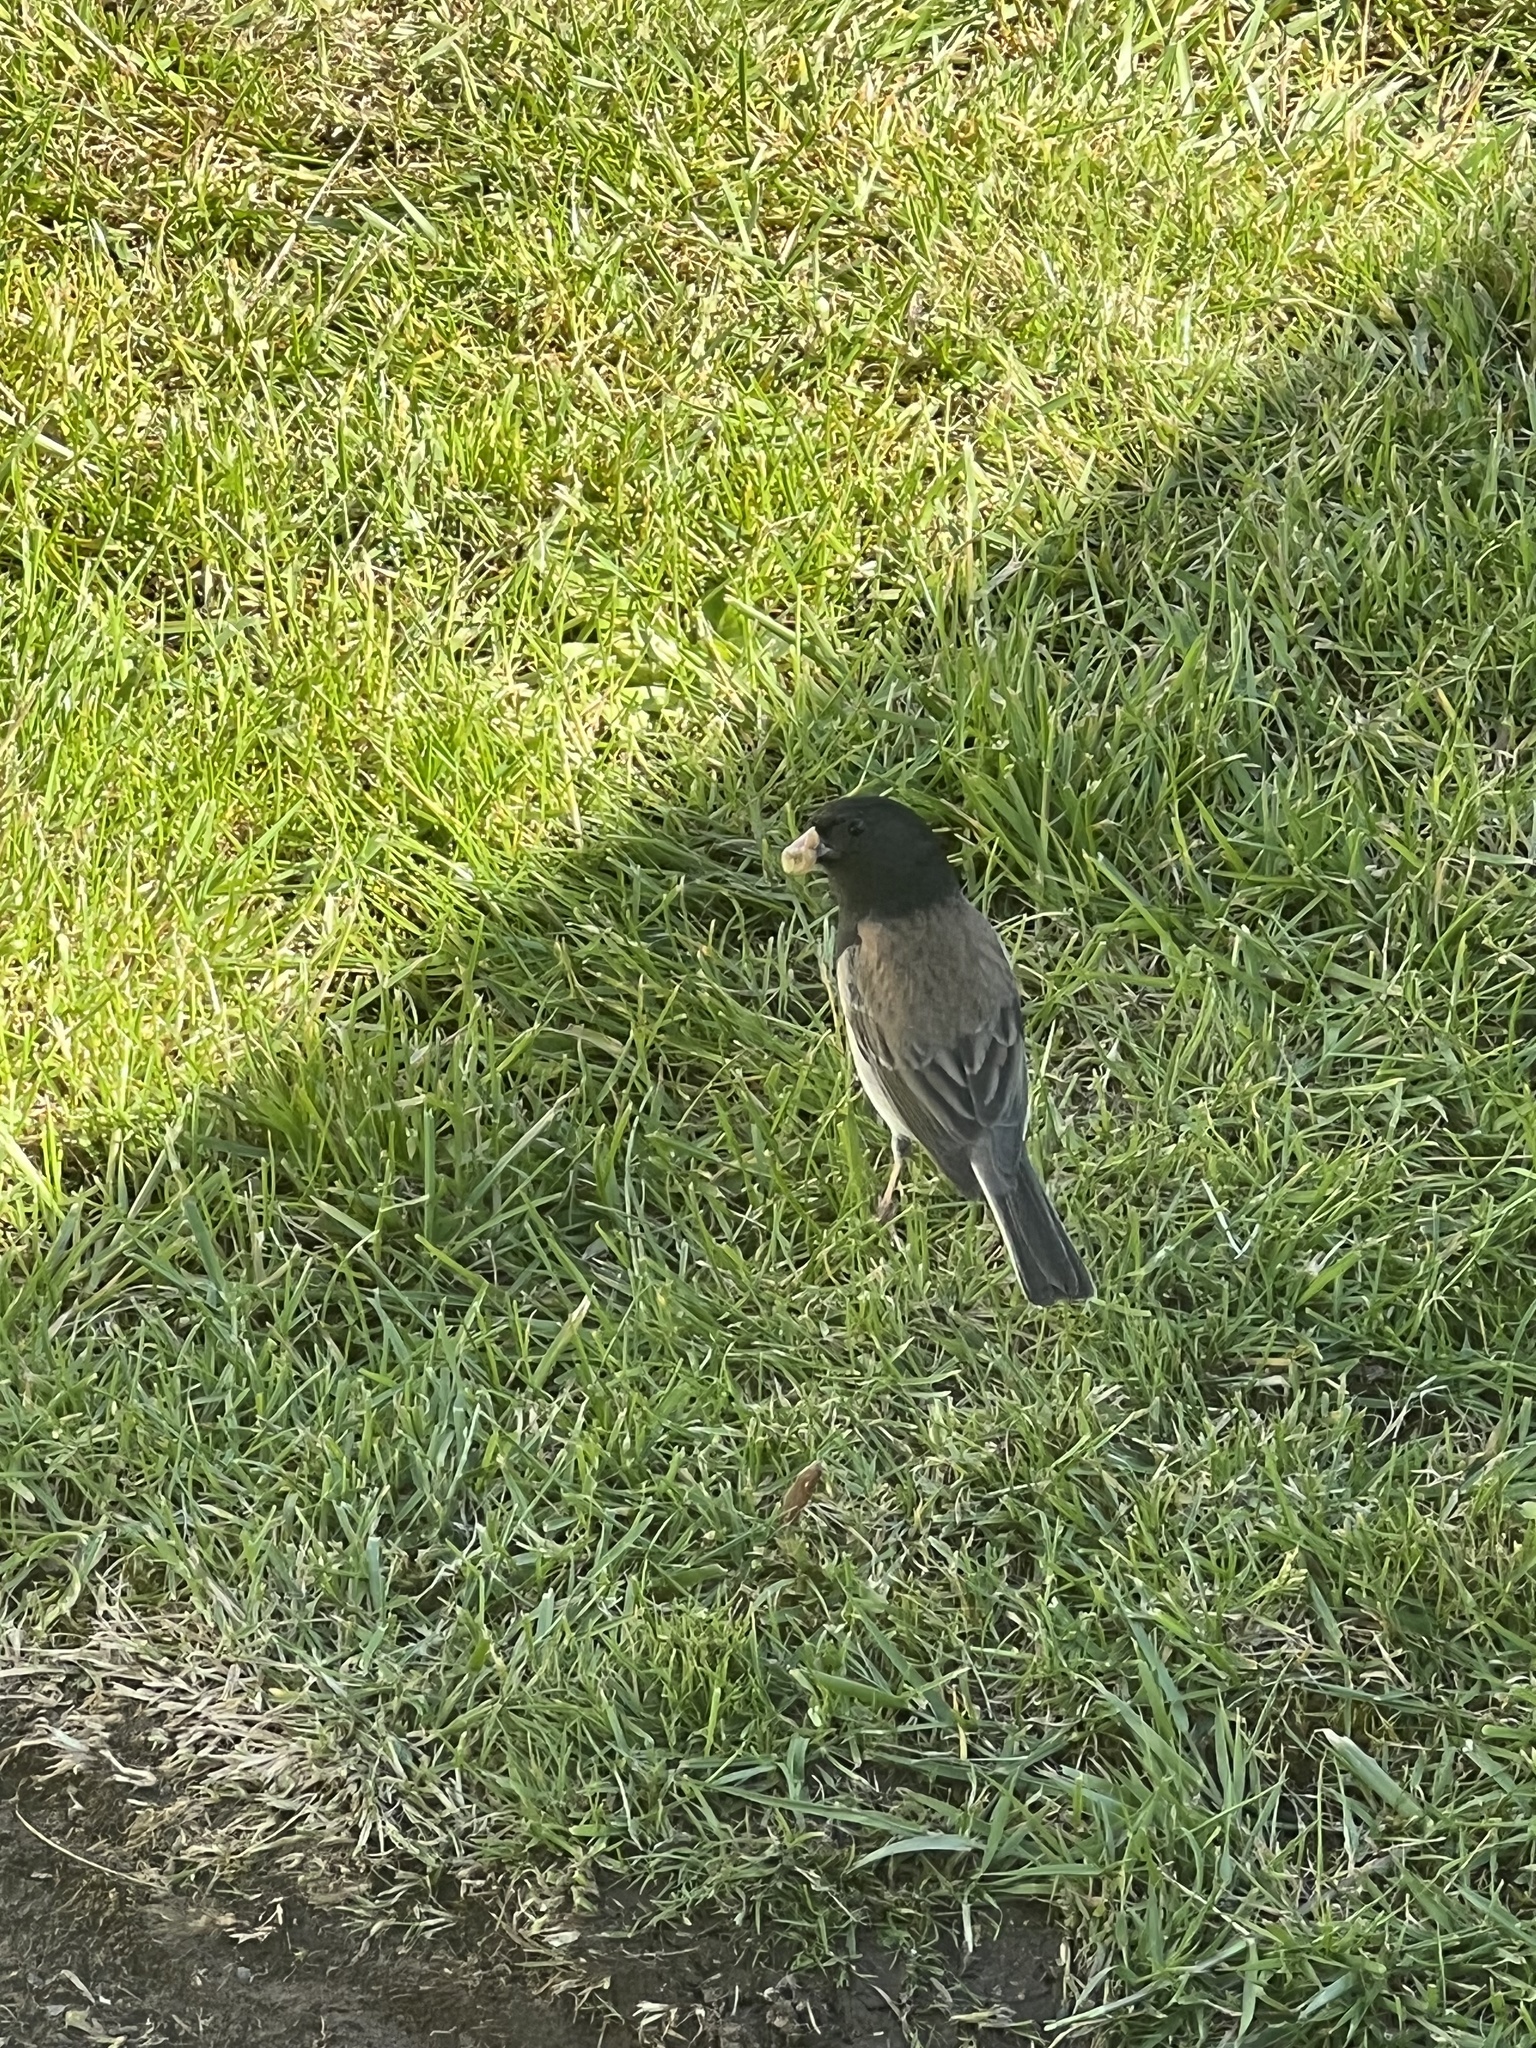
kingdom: Animalia
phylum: Chordata
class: Aves
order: Passeriformes
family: Passerellidae
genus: Junco
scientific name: Junco hyemalis
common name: Dark-eyed junco
